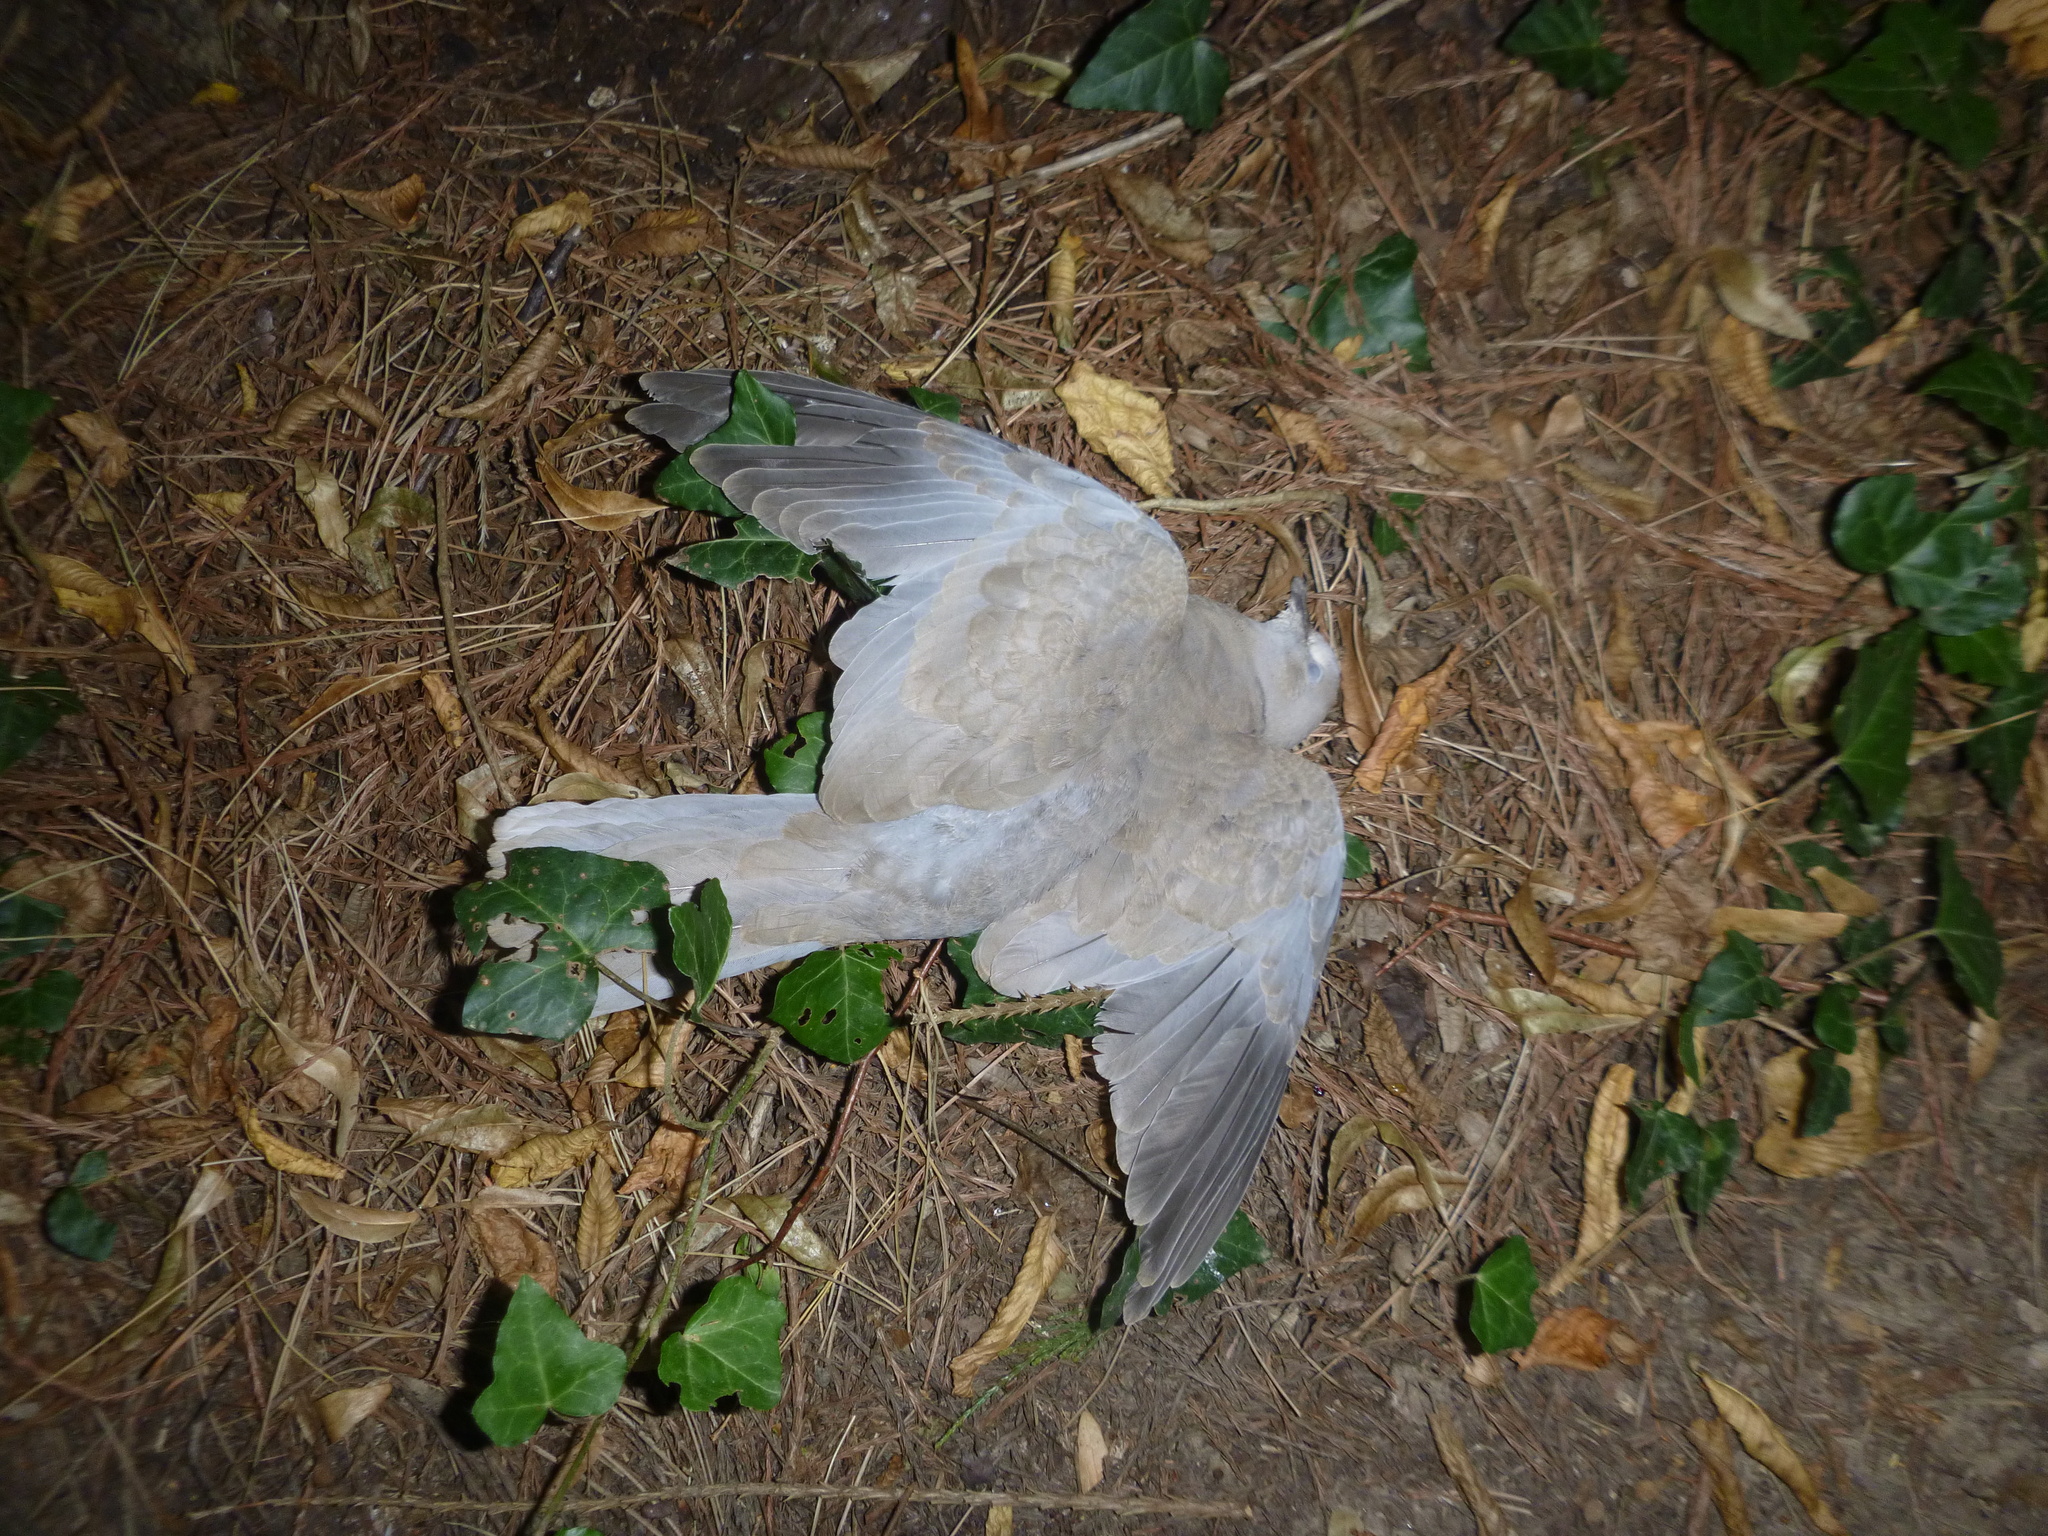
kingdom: Animalia
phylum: Chordata
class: Aves
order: Columbiformes
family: Columbidae
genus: Streptopelia
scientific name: Streptopelia decaocto
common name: Eurasian collared dove
